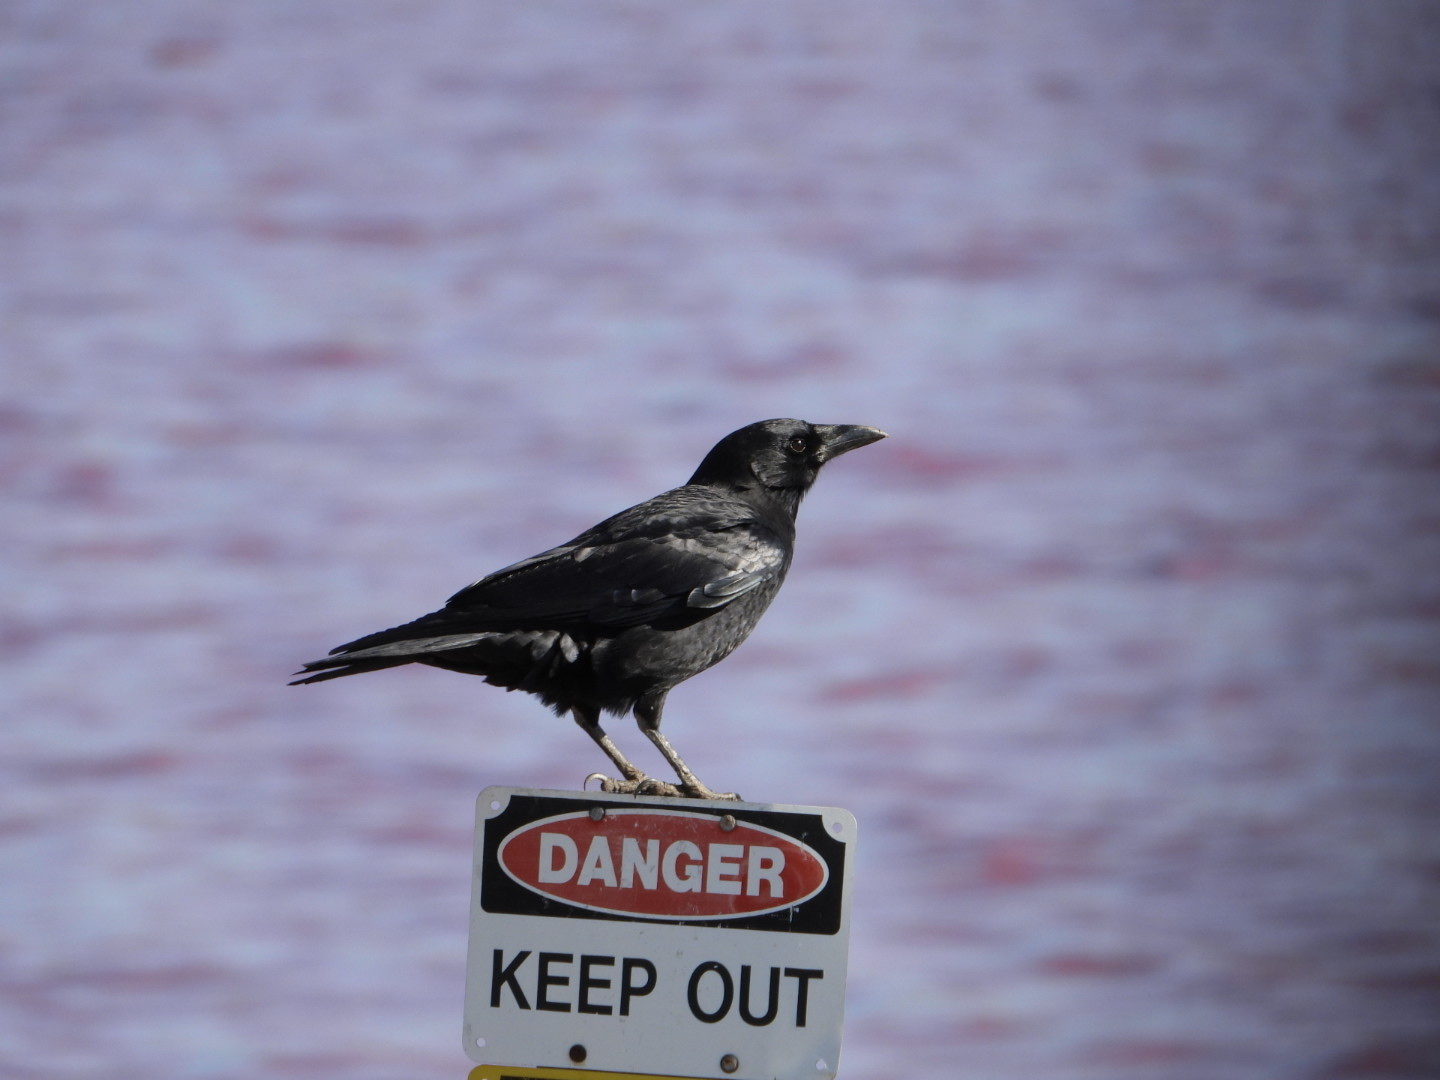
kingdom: Animalia
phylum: Chordata
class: Aves
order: Passeriformes
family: Corvidae
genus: Corvus
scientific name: Corvus brachyrhynchos
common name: American crow
